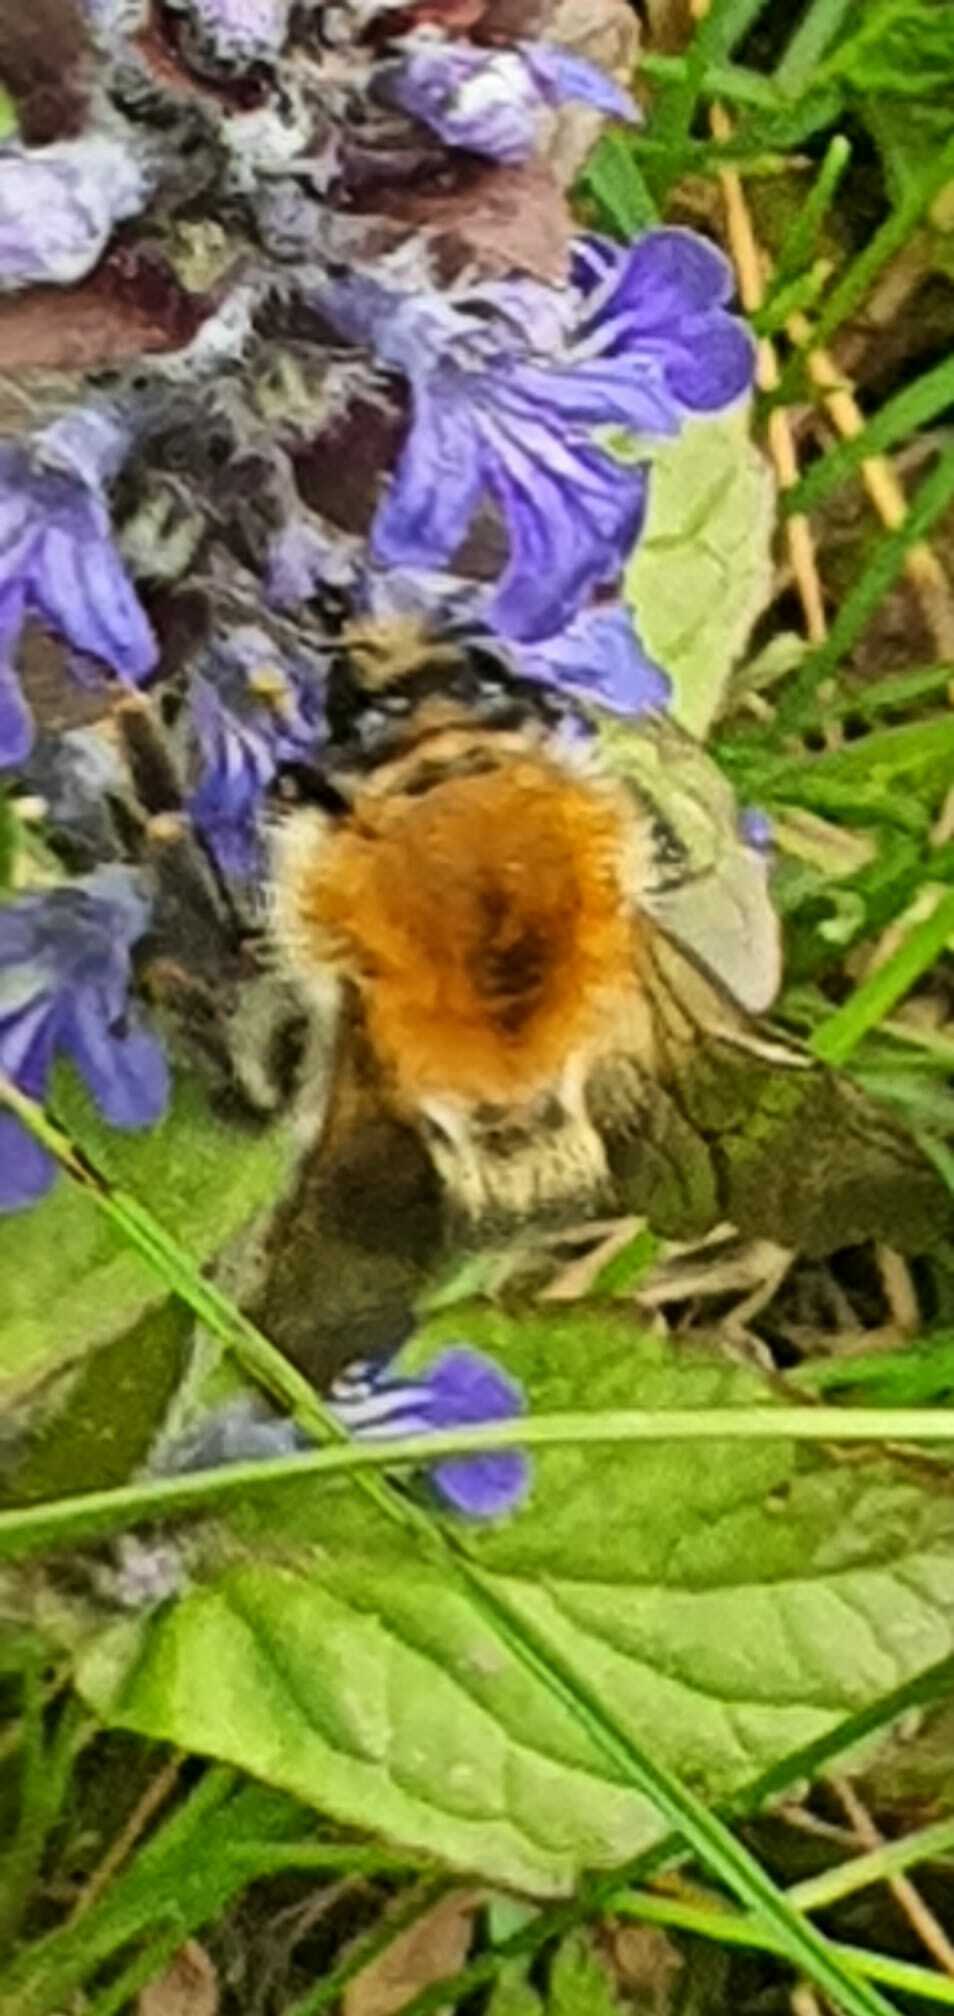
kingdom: Animalia
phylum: Arthropoda
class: Insecta
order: Hymenoptera
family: Apidae
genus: Bombus
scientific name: Bombus pascuorum
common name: Common carder bee
